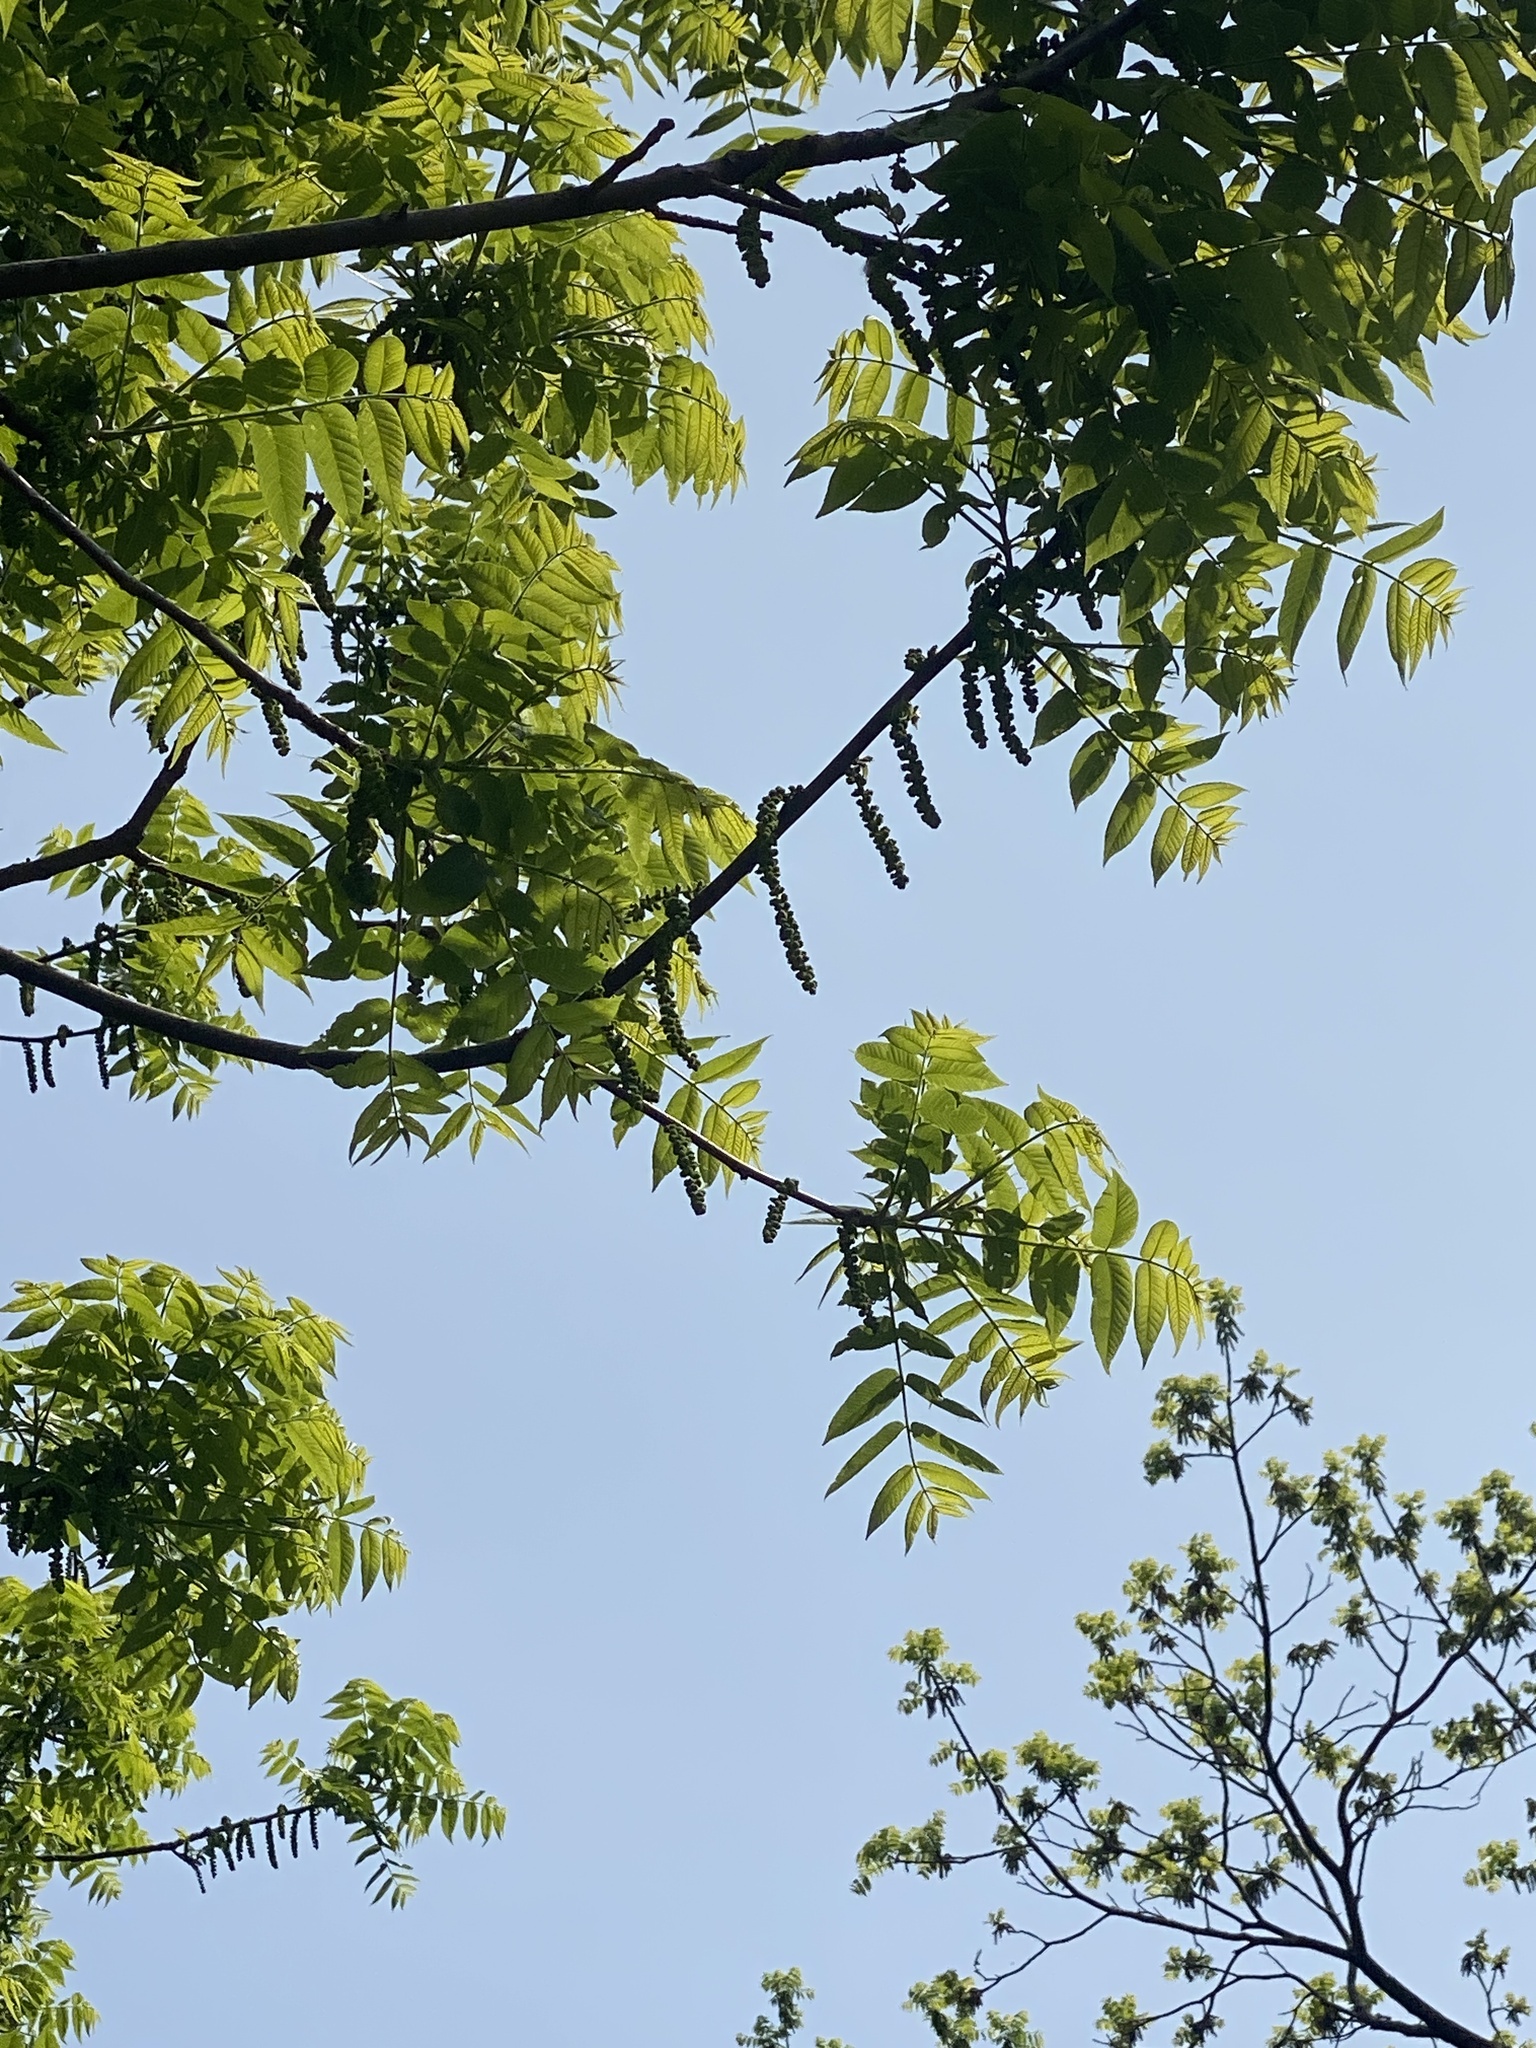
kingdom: Plantae
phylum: Tracheophyta
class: Magnoliopsida
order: Fagales
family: Juglandaceae
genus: Juglans
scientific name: Juglans nigra
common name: Black walnut
